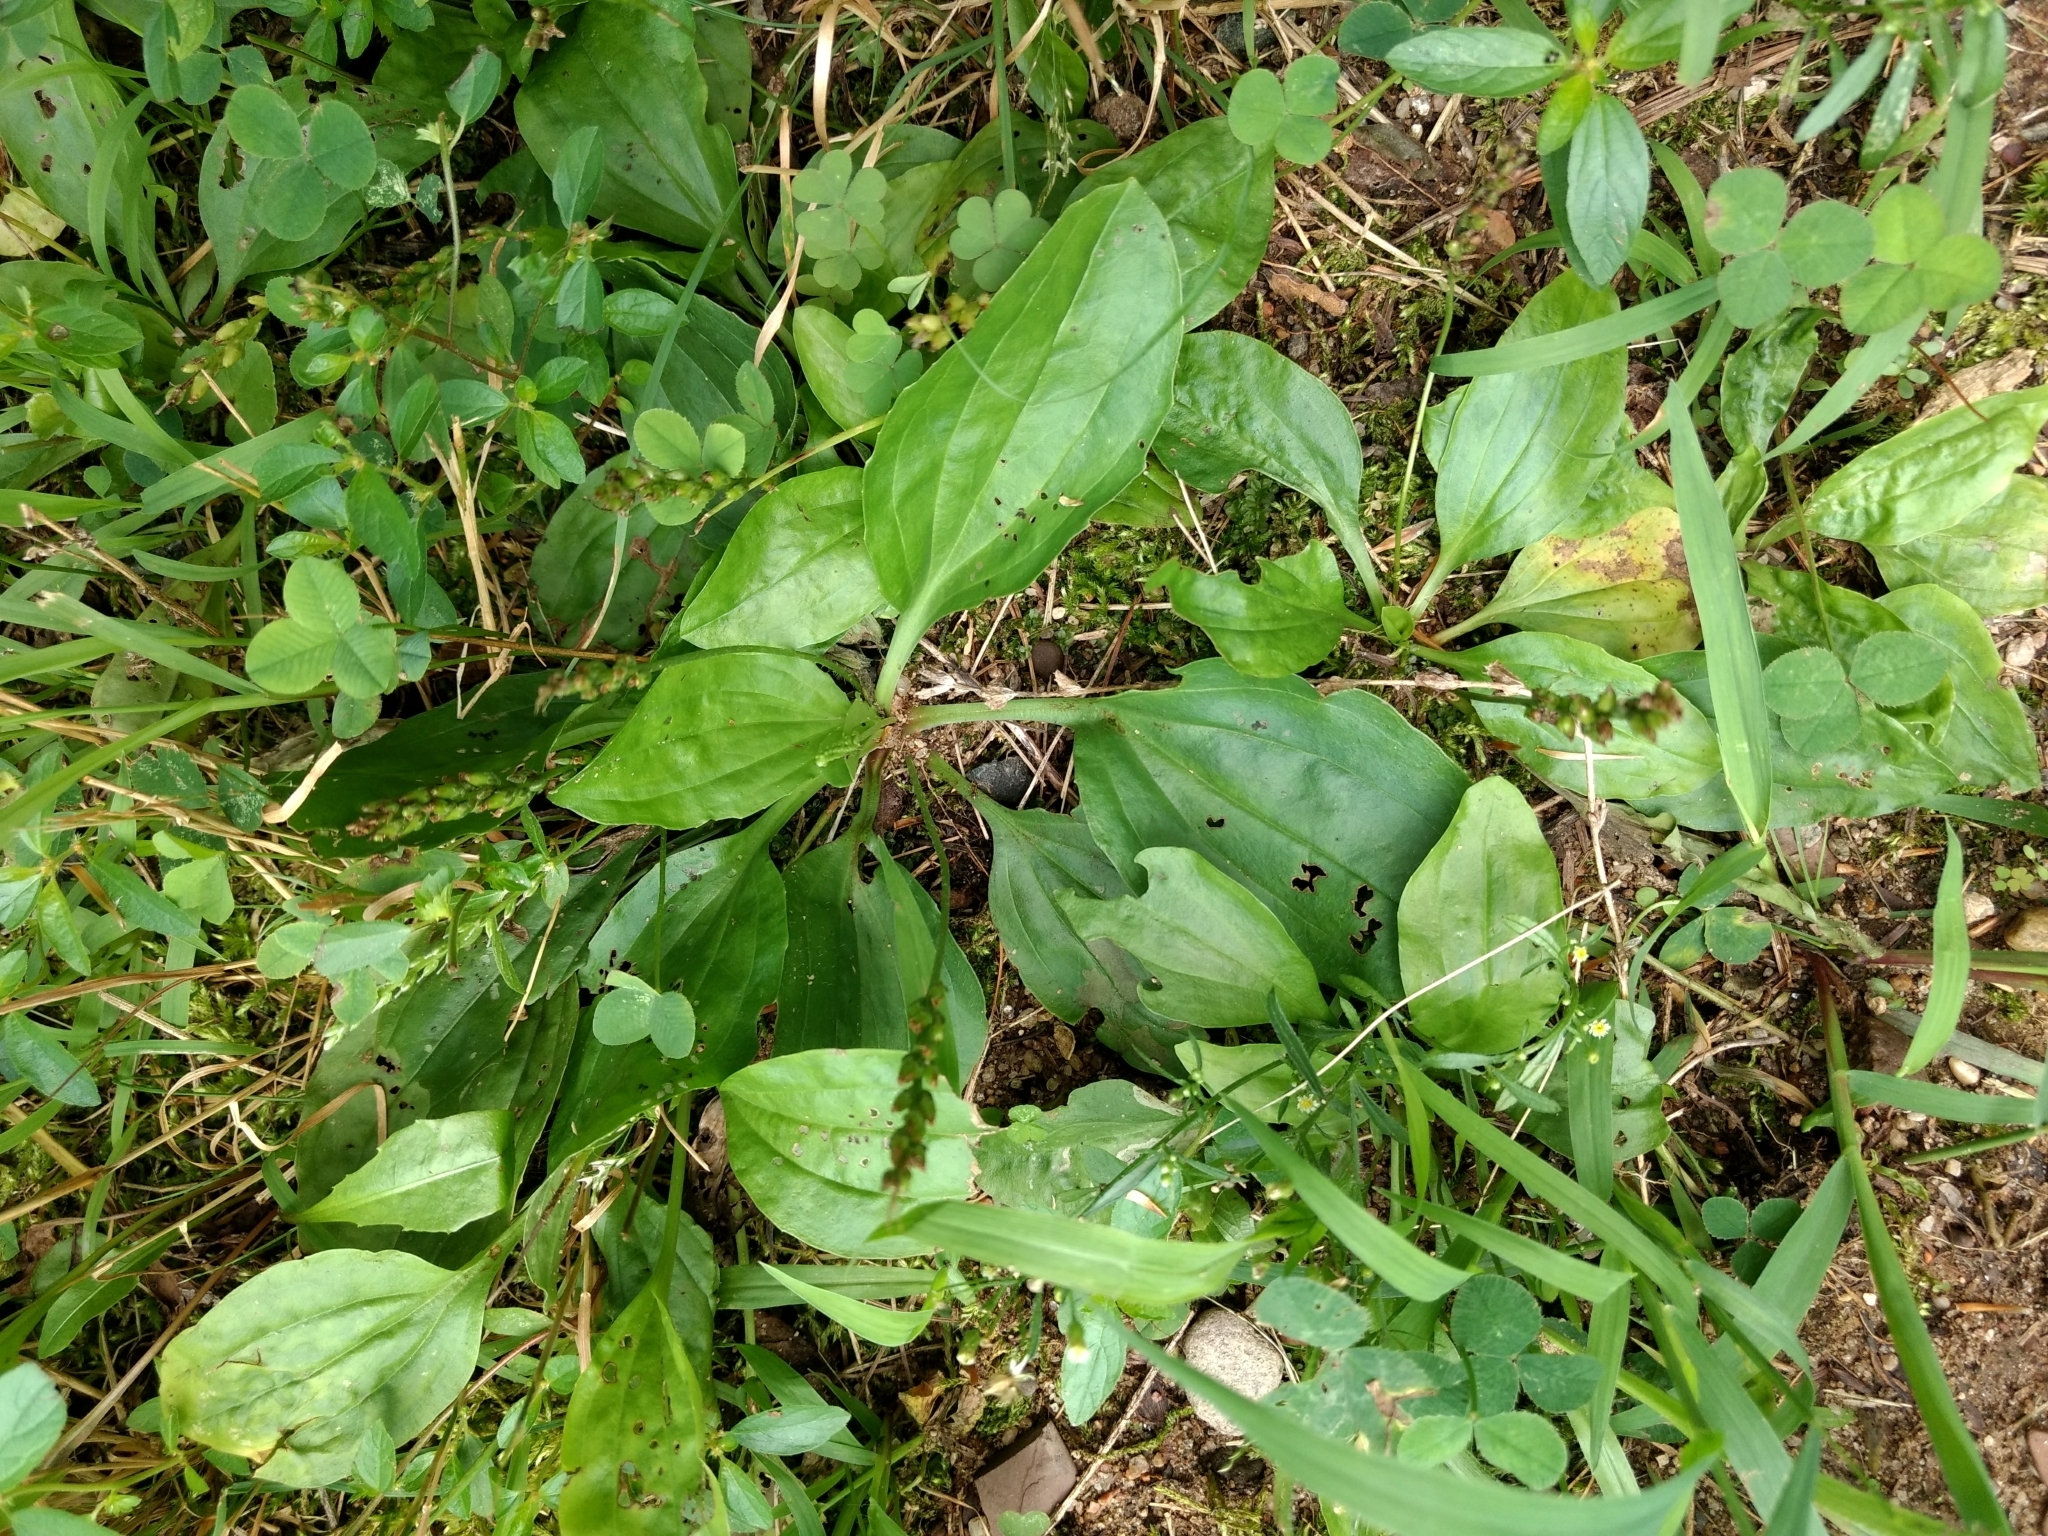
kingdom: Plantae
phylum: Tracheophyta
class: Magnoliopsida
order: Lamiales
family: Plantaginaceae
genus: Plantago
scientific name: Plantago major
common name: Common plantain
